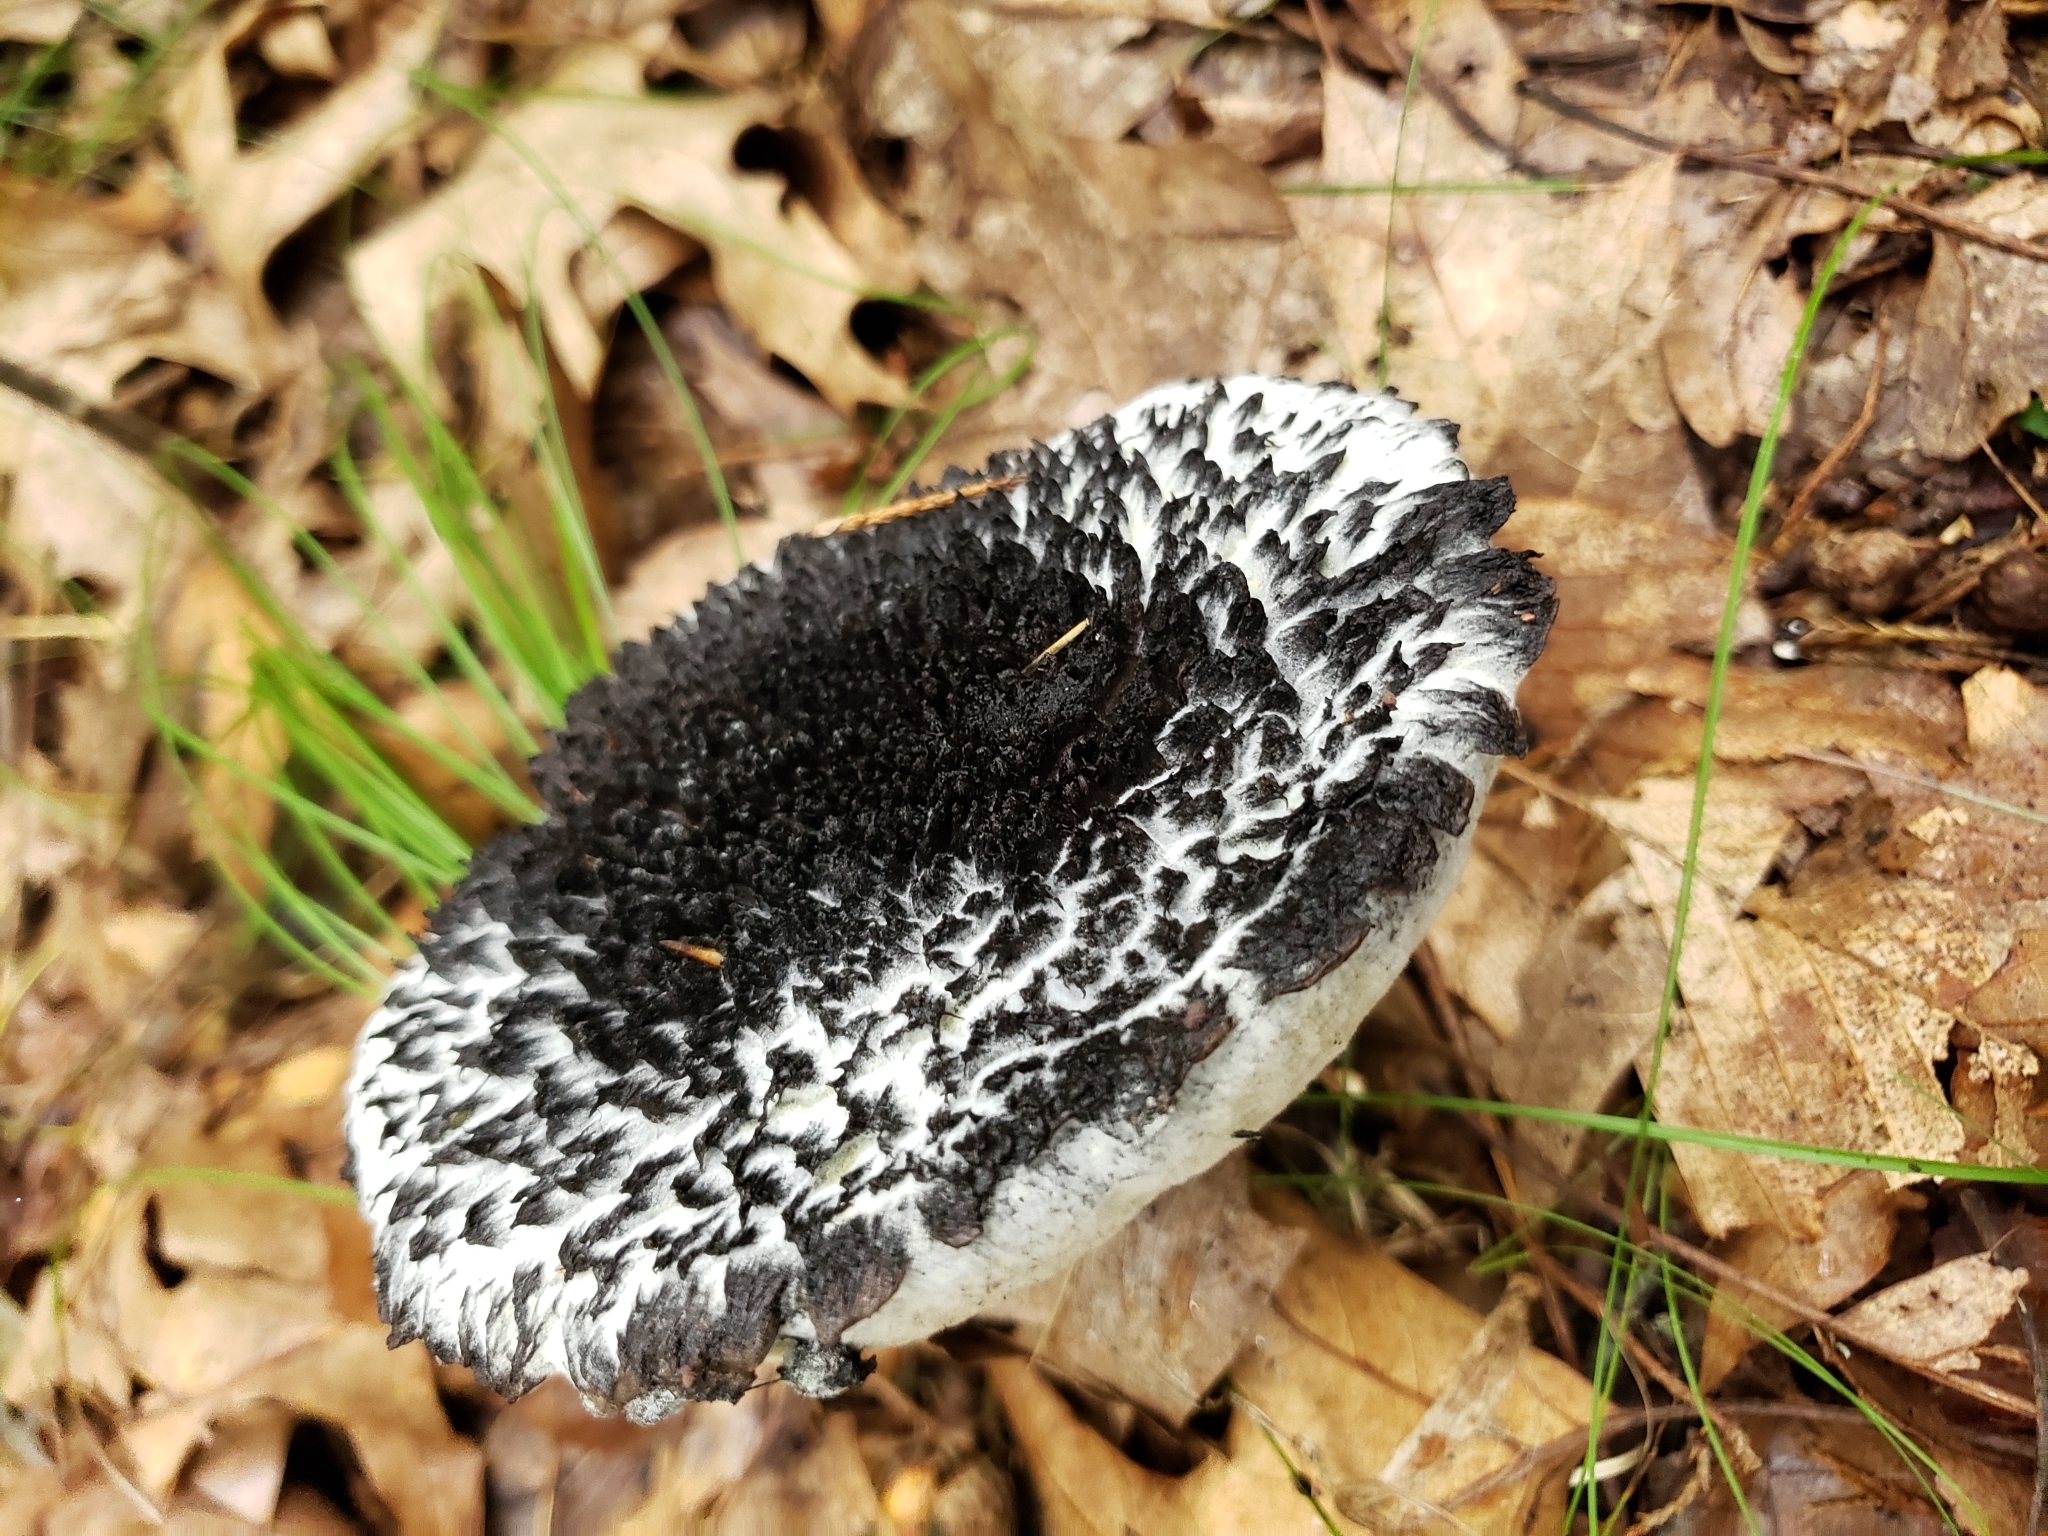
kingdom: Fungi
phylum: Basidiomycota
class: Agaricomycetes
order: Boletales
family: Boletaceae
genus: Strobilomyces
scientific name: Strobilomyces strobilaceus
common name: Old man of the woods
